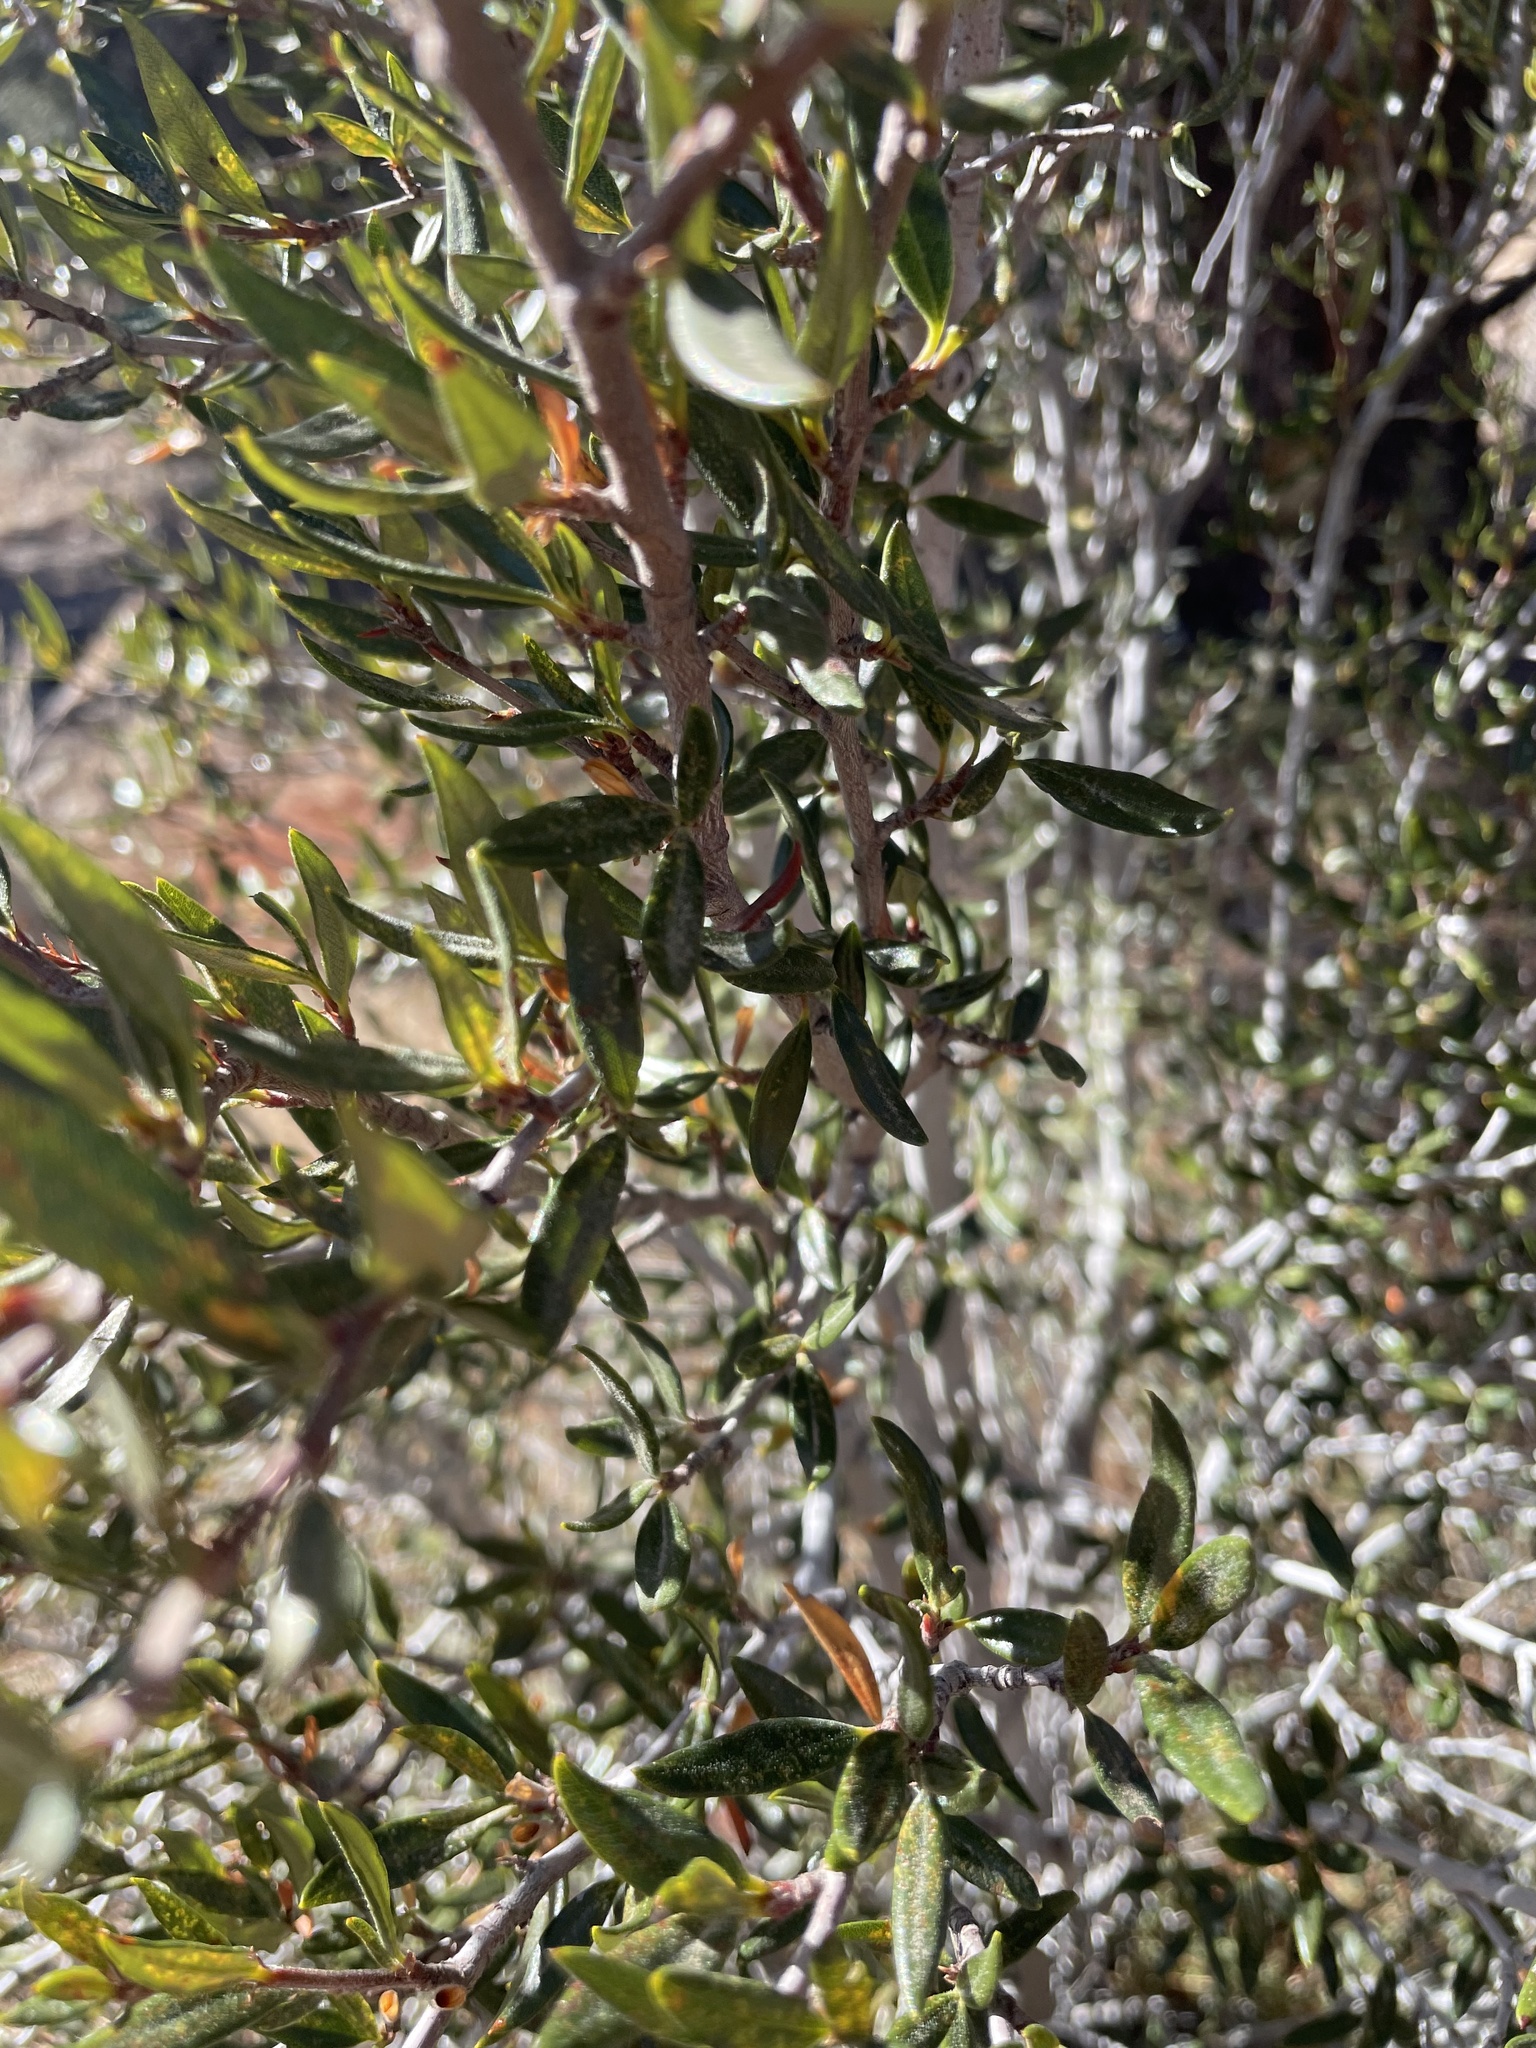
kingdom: Plantae
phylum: Tracheophyta
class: Magnoliopsida
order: Rosales
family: Rosaceae
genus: Cercocarpus
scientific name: Cercocarpus ledifolius
